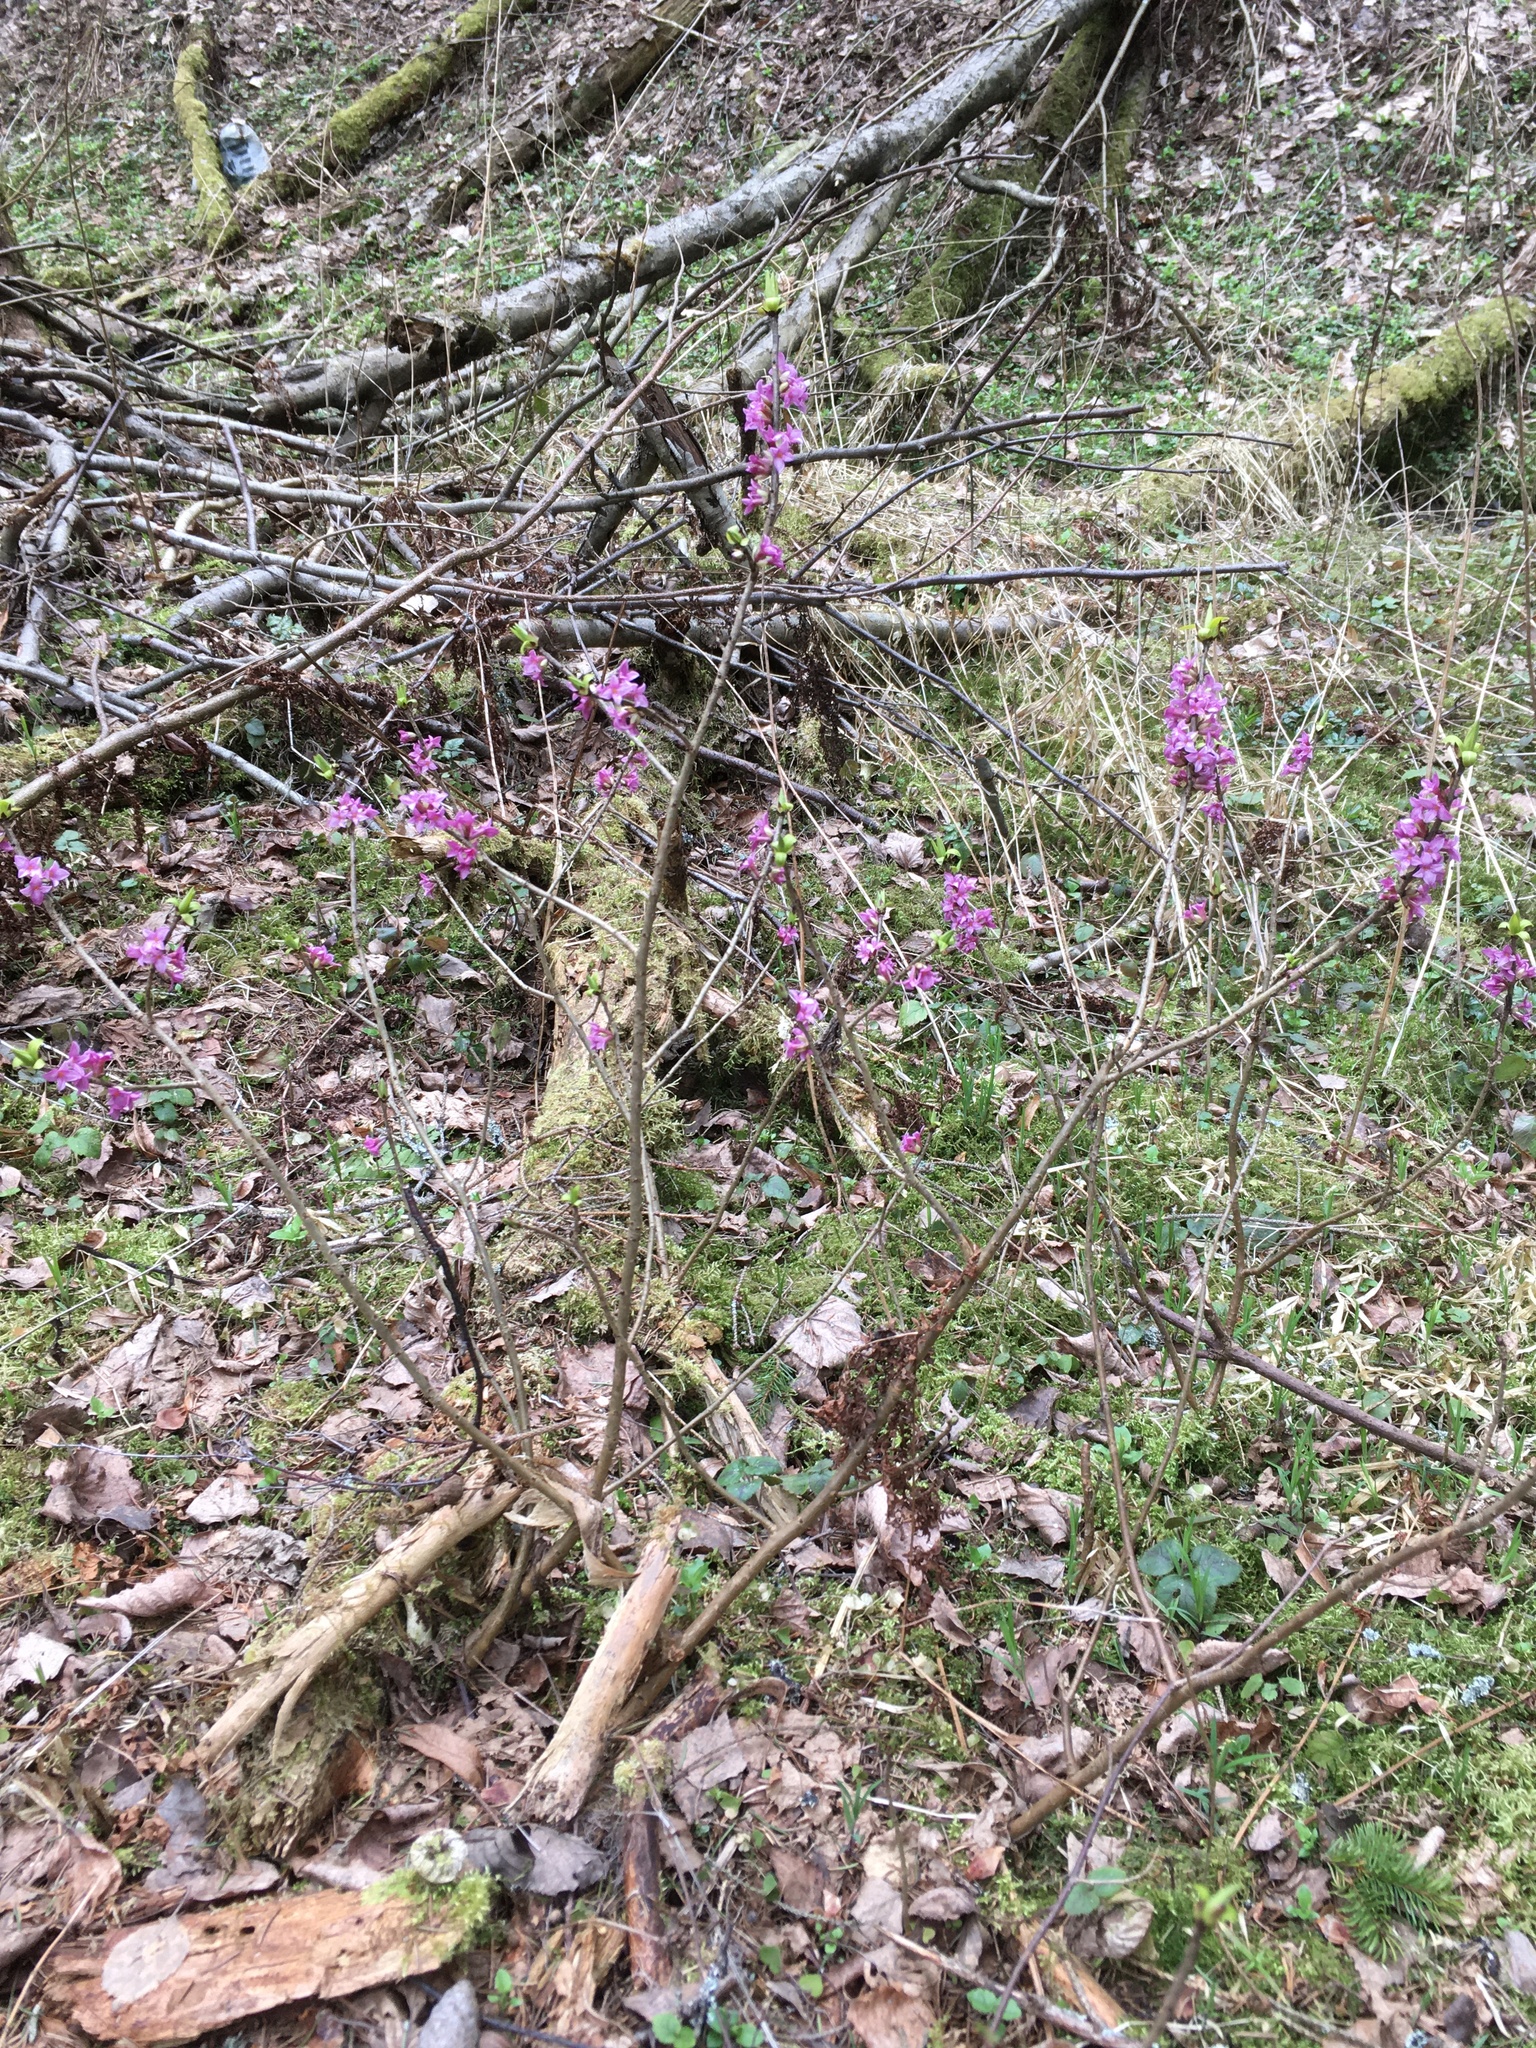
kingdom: Plantae
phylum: Tracheophyta
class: Magnoliopsida
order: Malvales
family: Thymelaeaceae
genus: Daphne
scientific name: Daphne mezereum
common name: Mezereon
